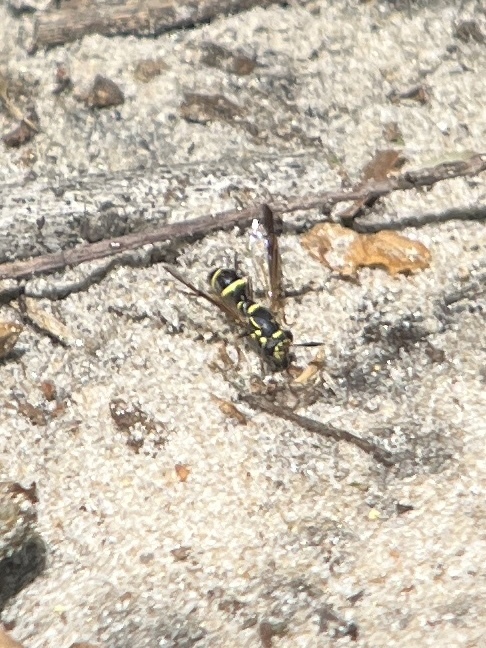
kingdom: Animalia
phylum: Arthropoda
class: Insecta
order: Diptera
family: Syrphidae
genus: Sphiximorpha
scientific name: Sphiximorpha willistoni
